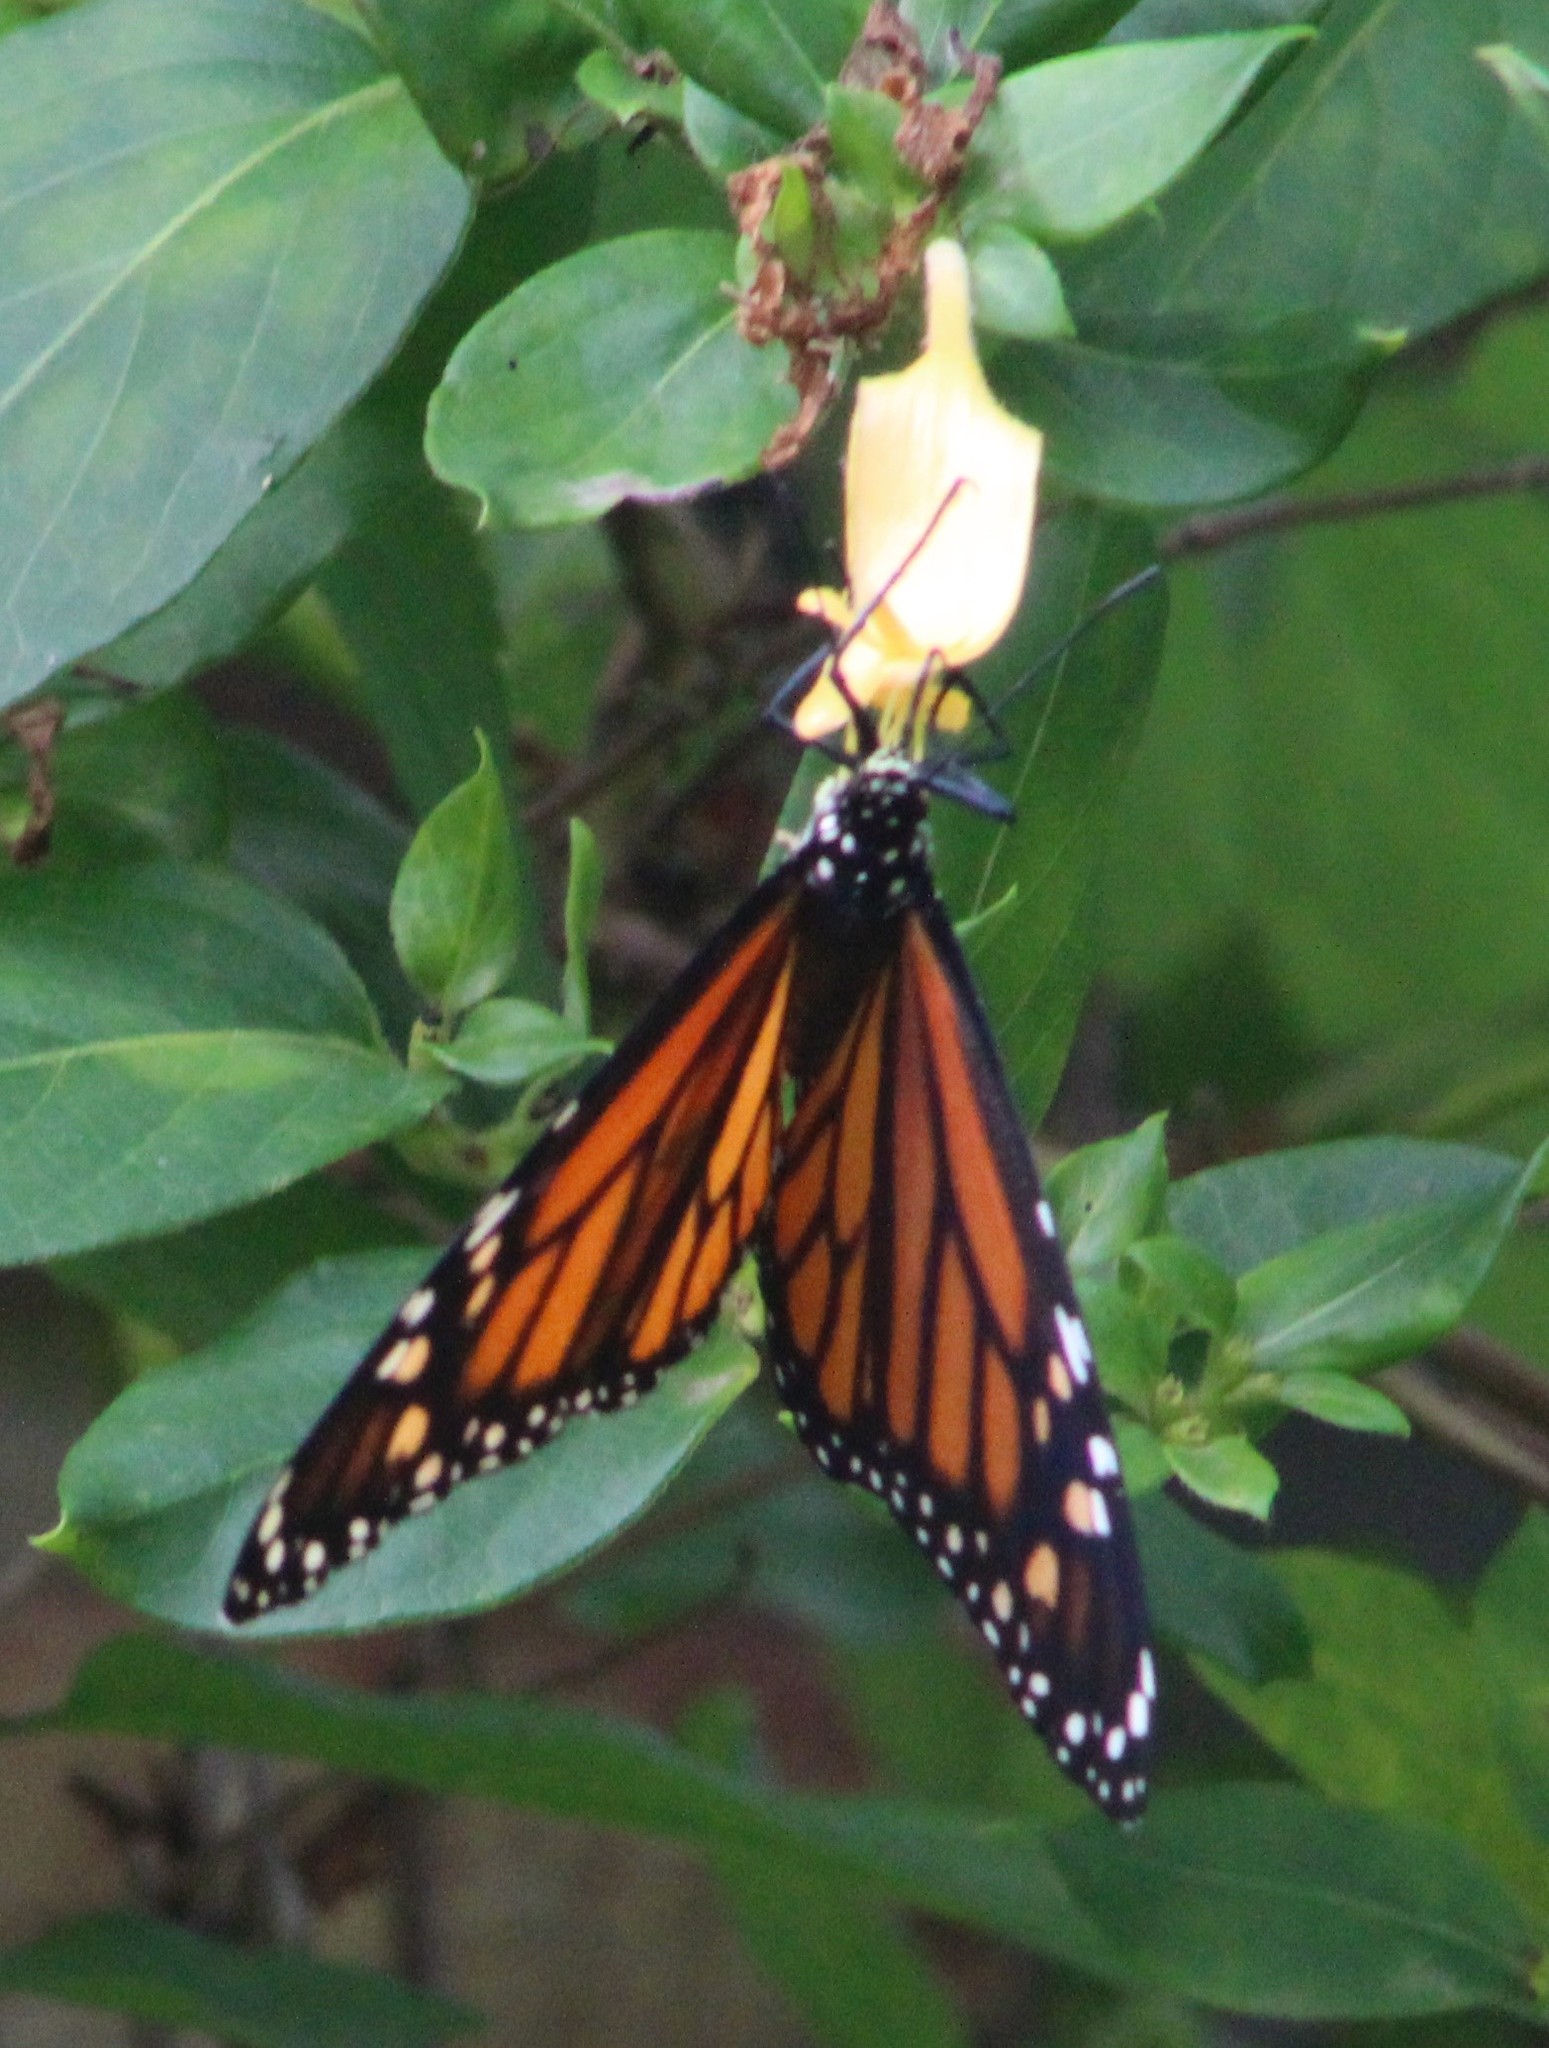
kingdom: Animalia
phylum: Arthropoda
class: Insecta
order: Lepidoptera
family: Nymphalidae
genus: Danaus
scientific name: Danaus plexippus
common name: Monarch
